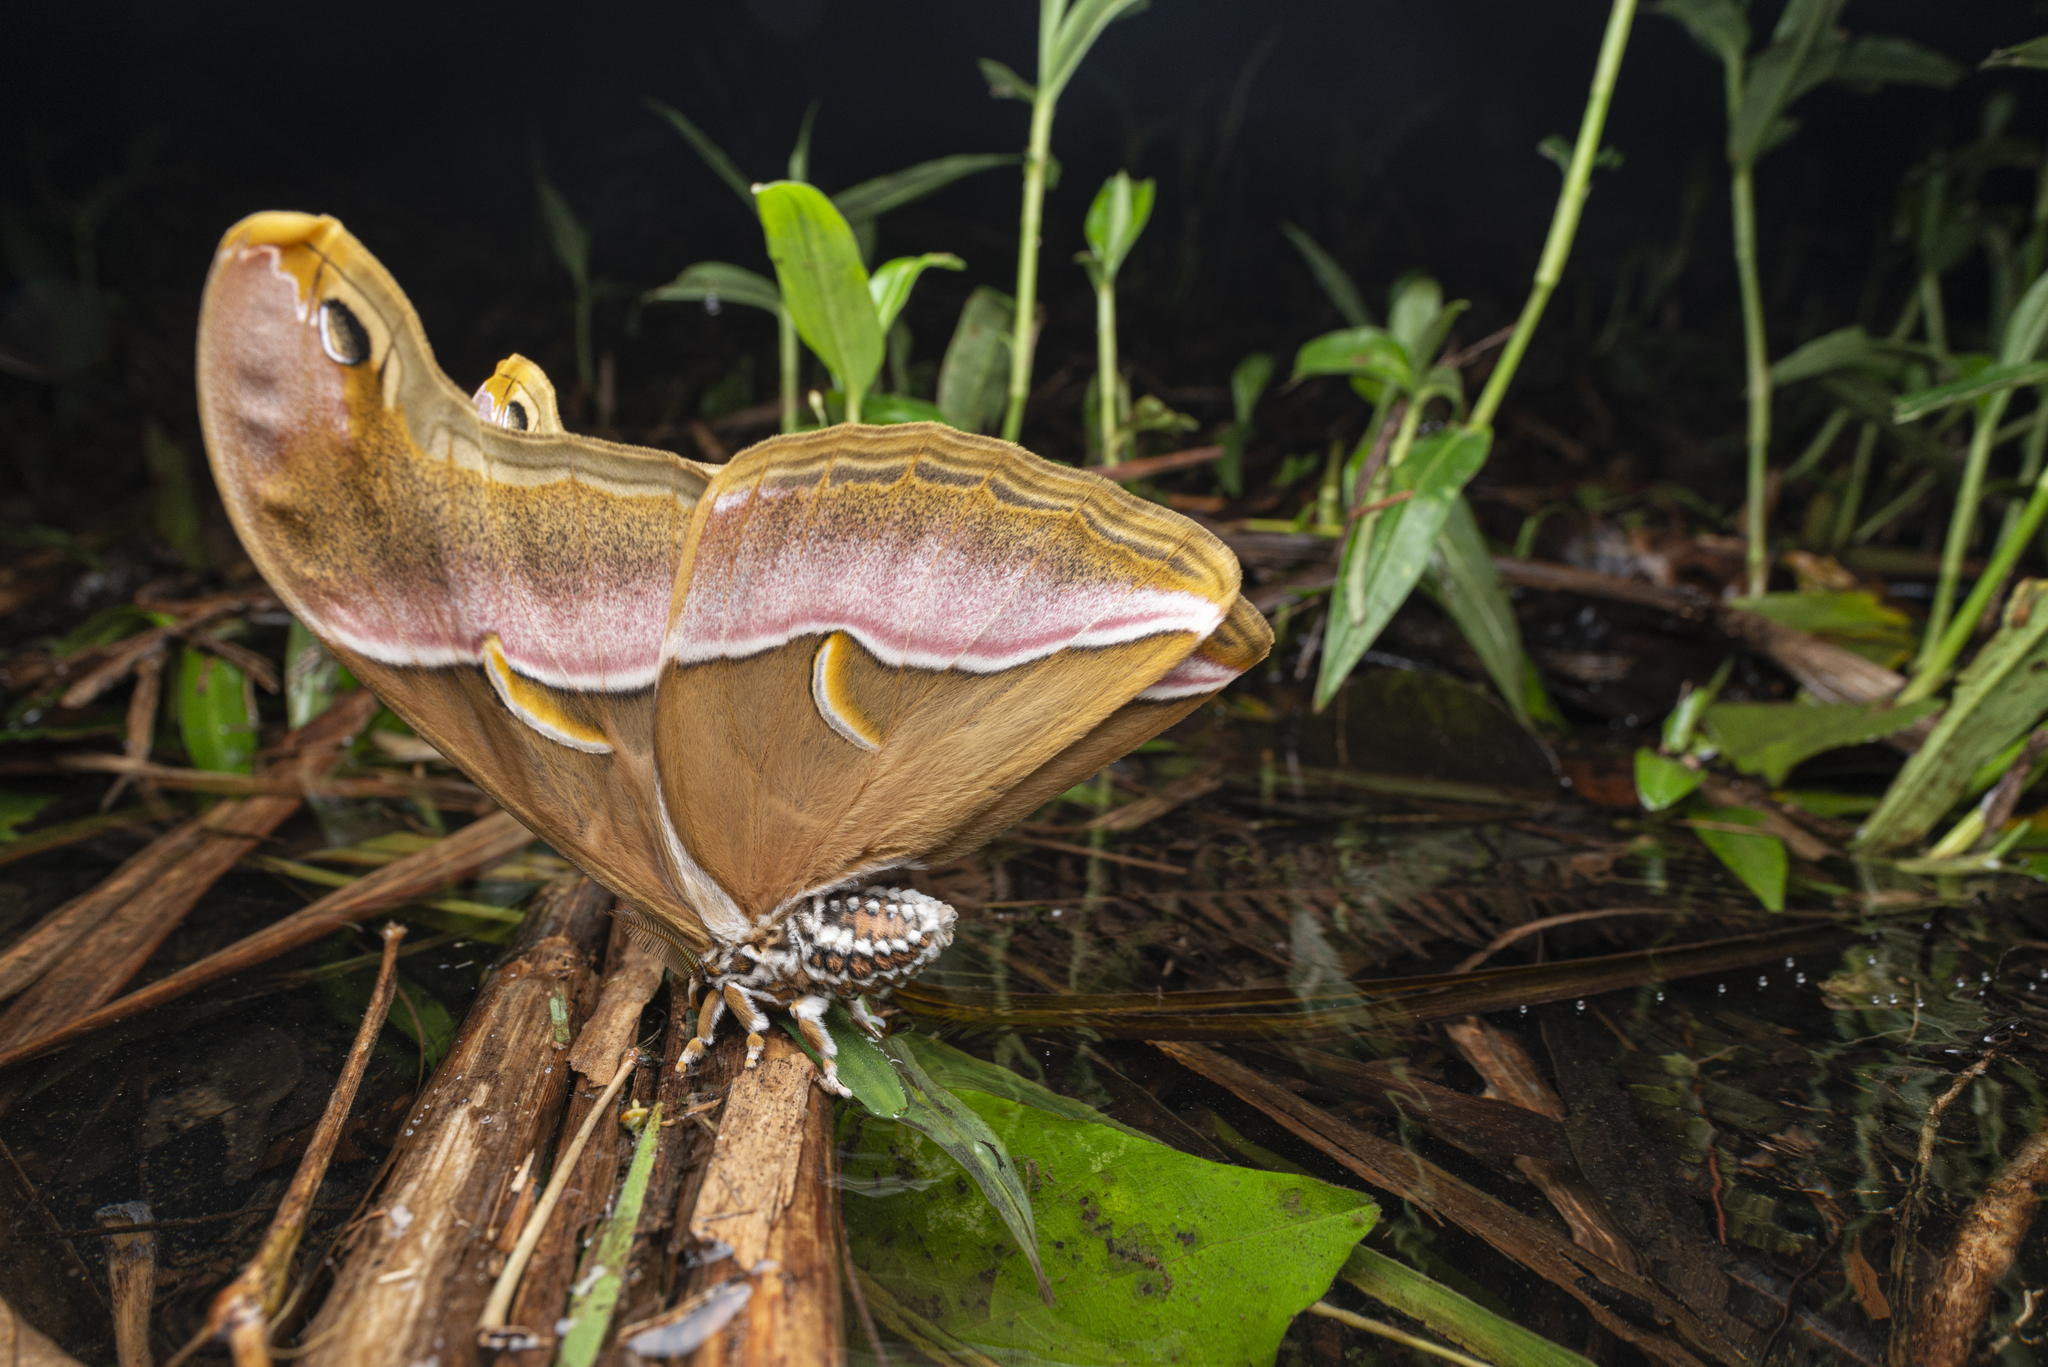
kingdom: Animalia
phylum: Arthropoda
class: Insecta
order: Lepidoptera
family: Saturniidae
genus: Samia
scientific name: Samia wangi
